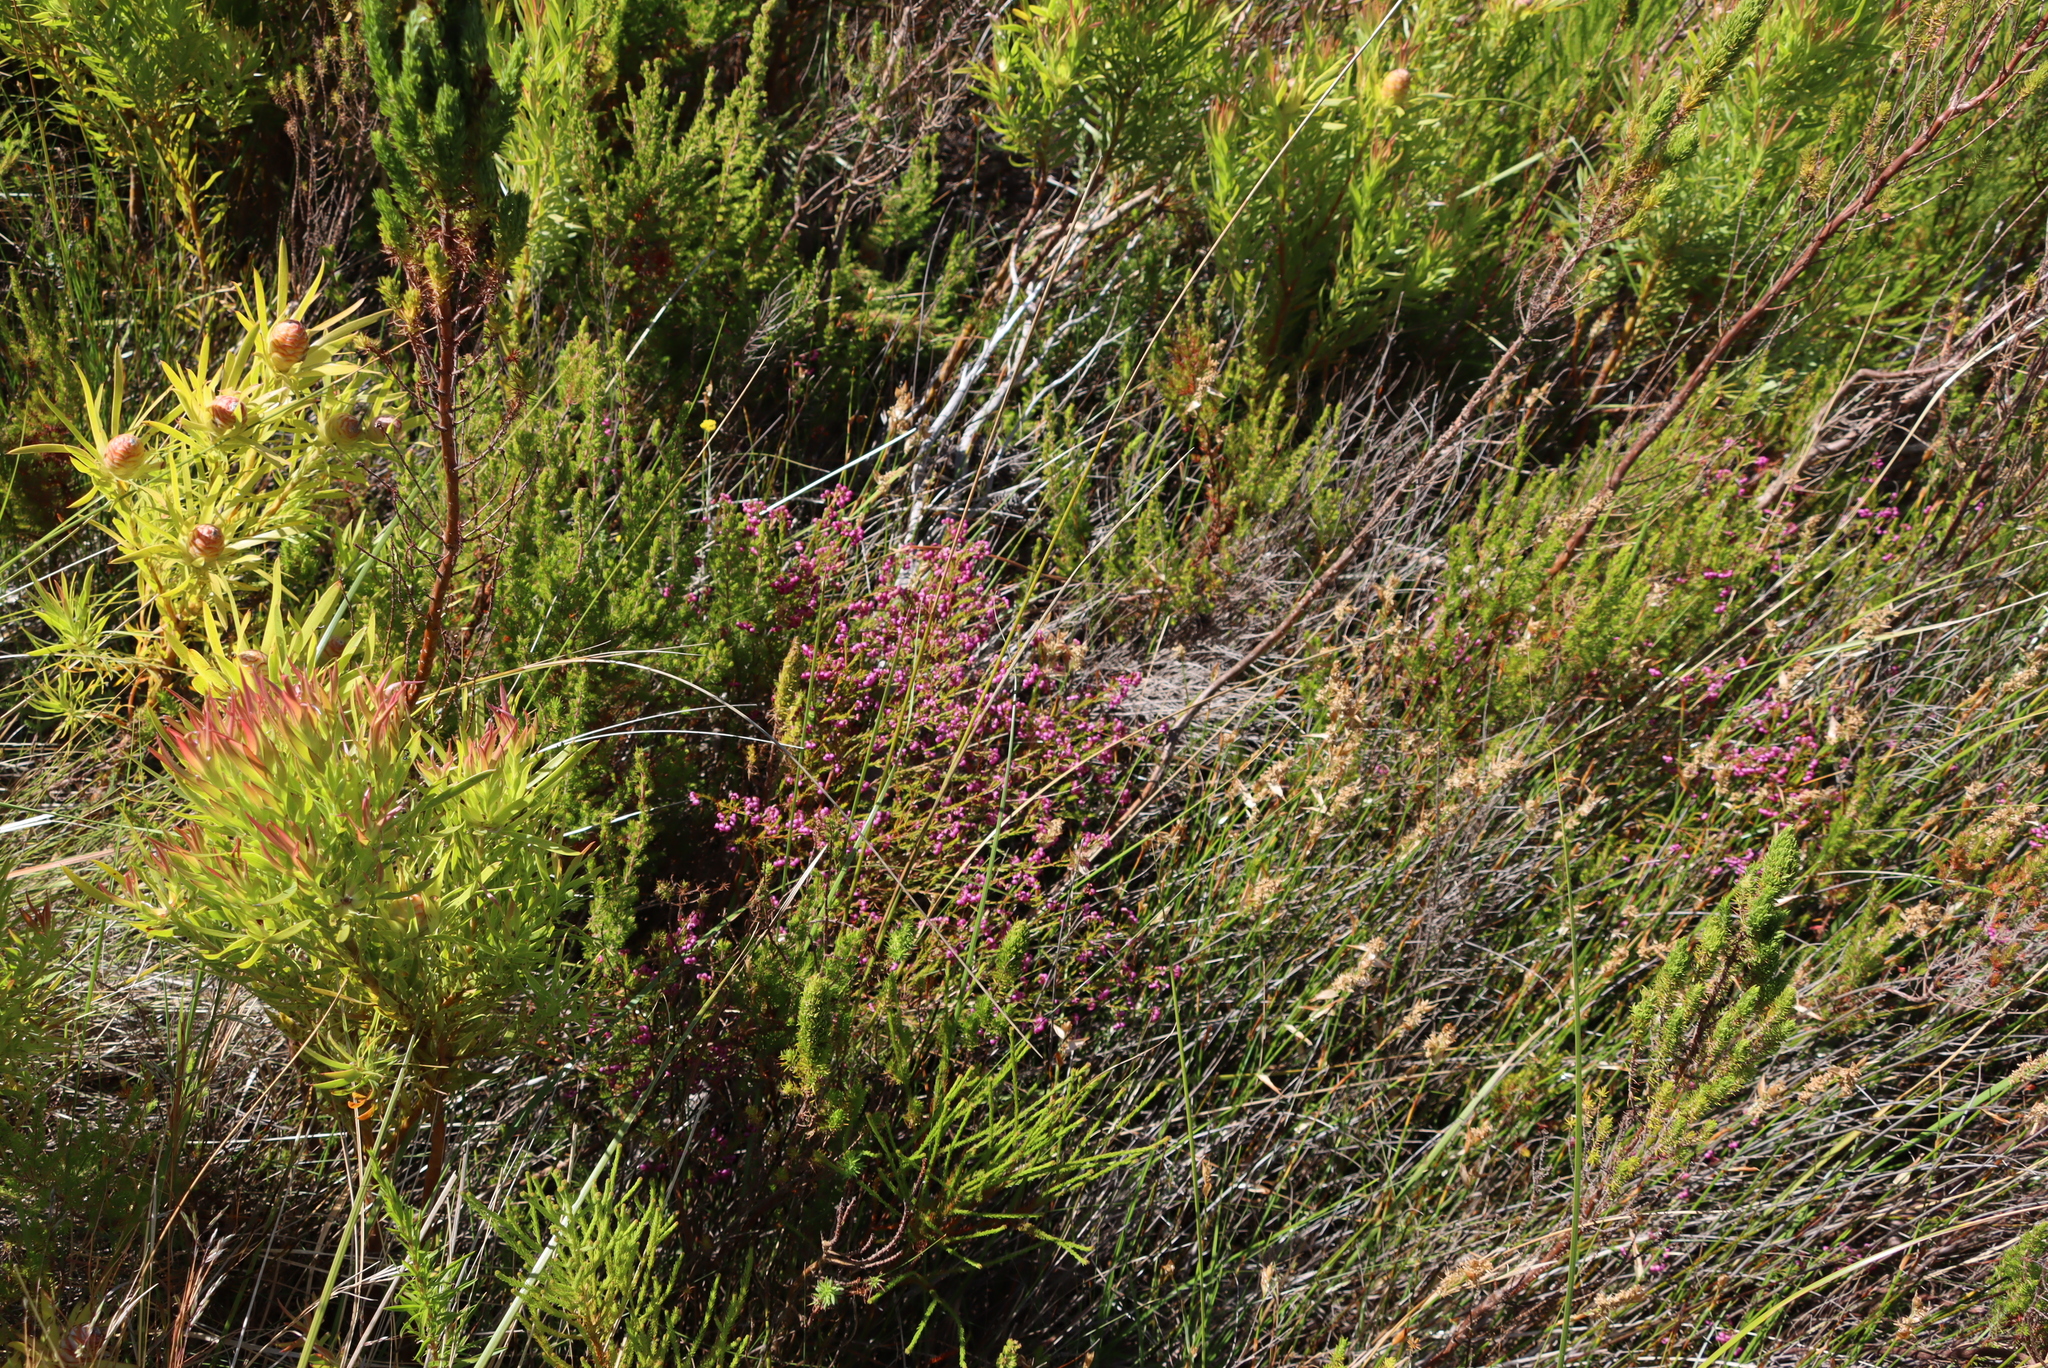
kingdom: Plantae
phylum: Tracheophyta
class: Magnoliopsida
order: Ericales
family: Ericaceae
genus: Erica
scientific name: Erica multumbellifera
